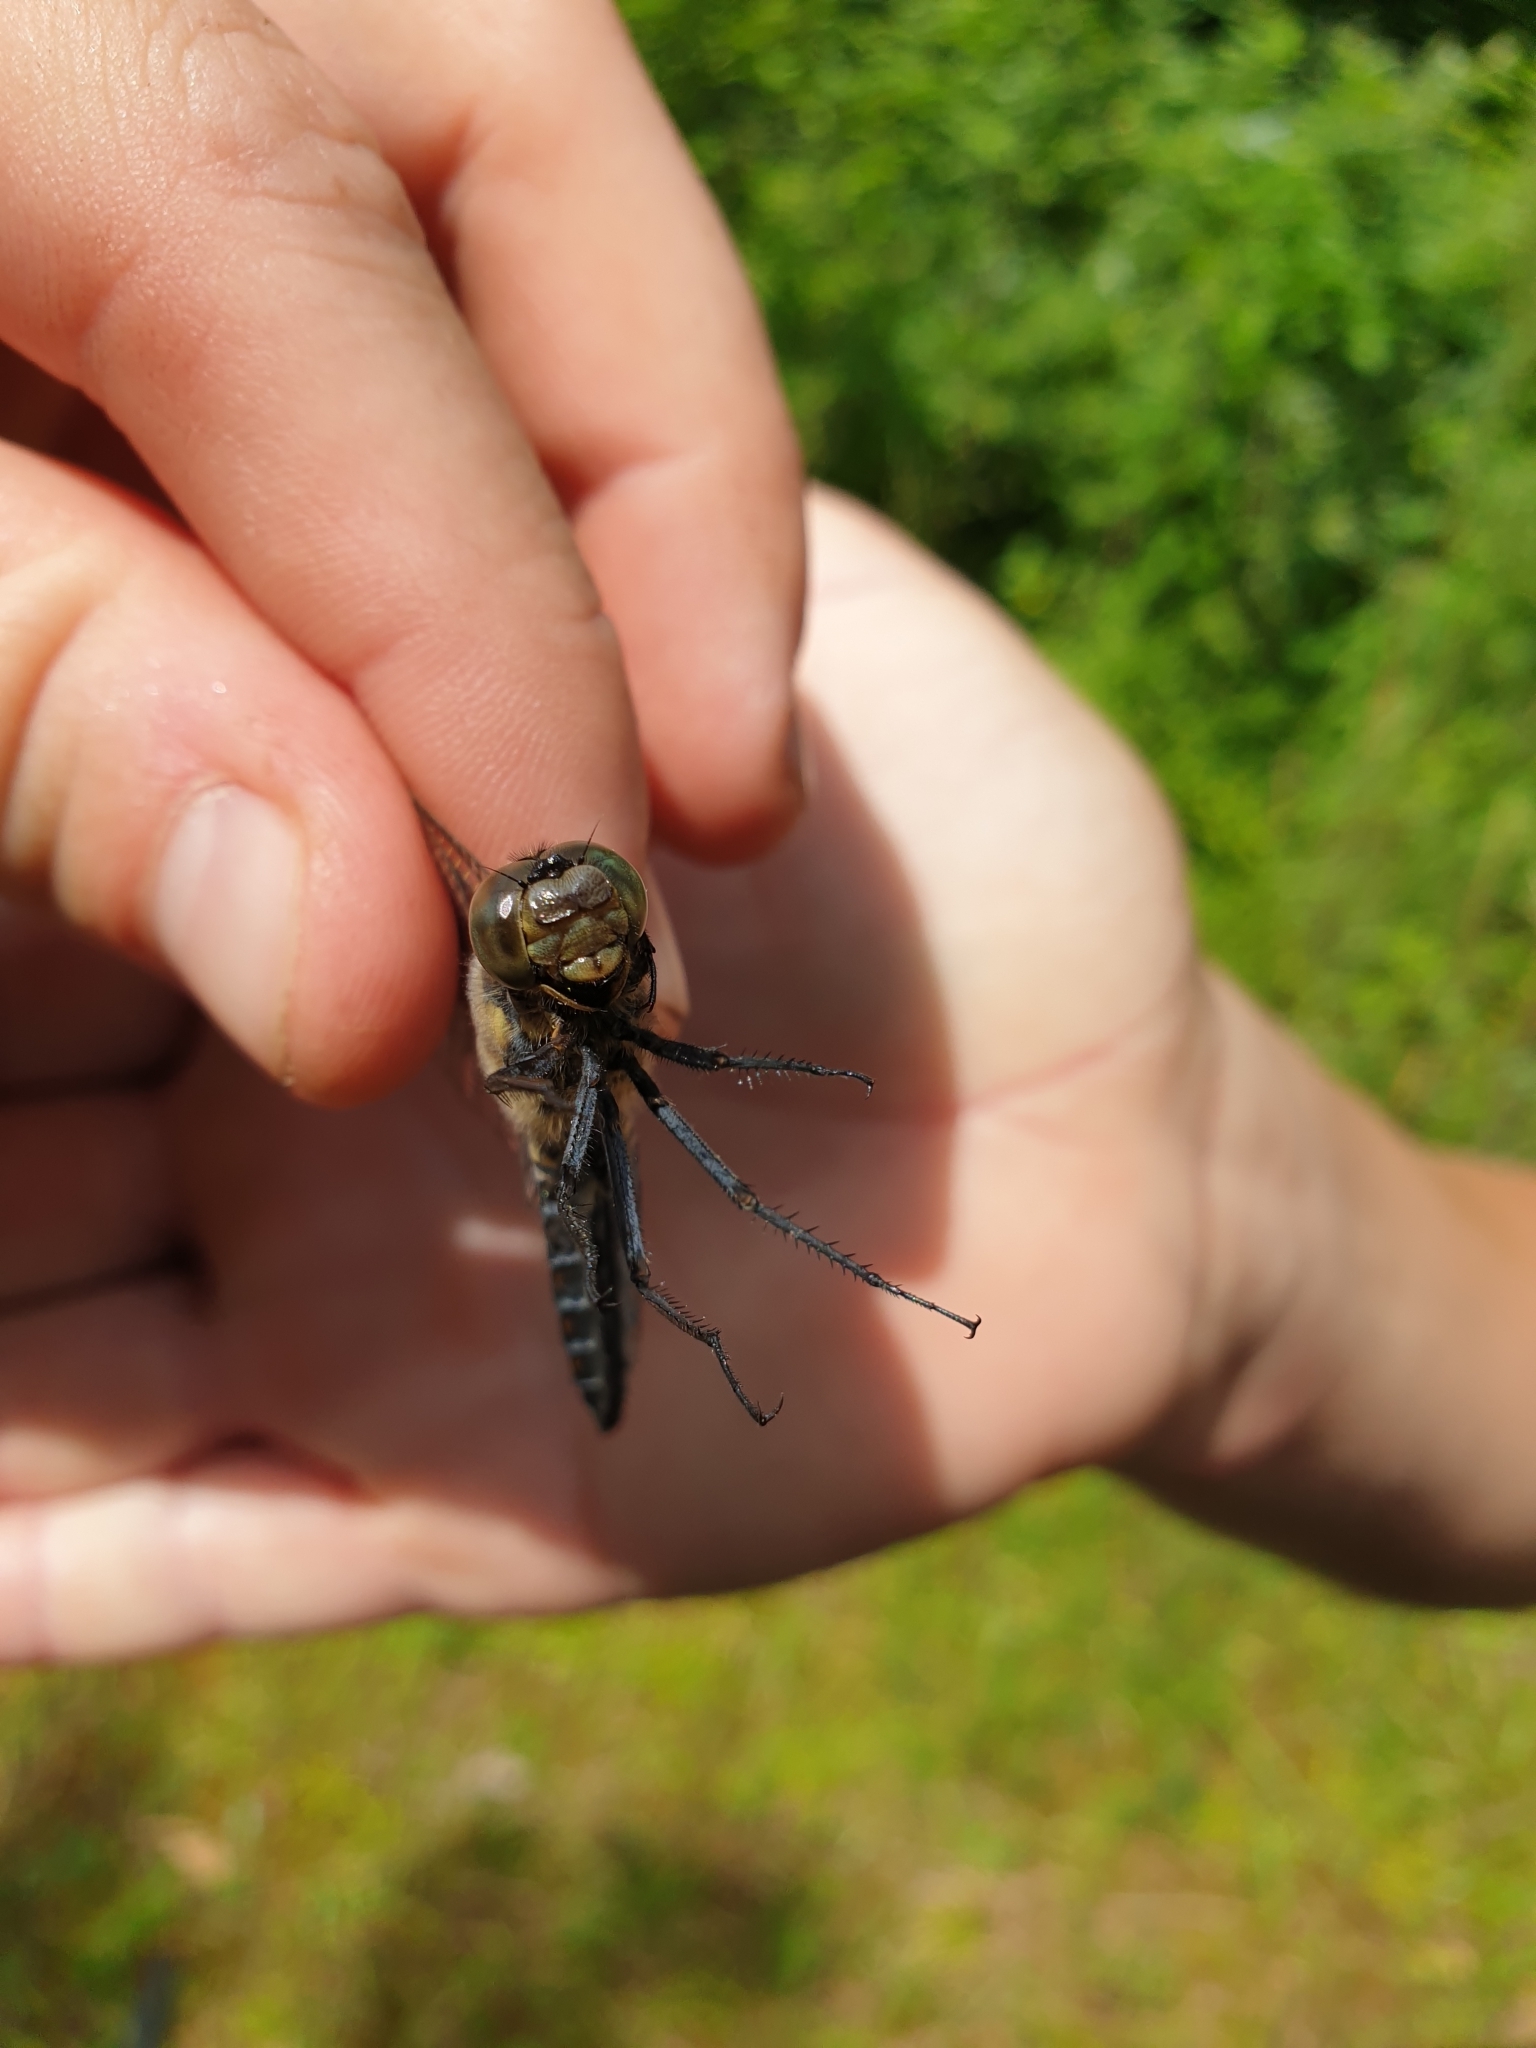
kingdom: Animalia
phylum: Arthropoda
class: Insecta
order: Odonata
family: Libellulidae
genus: Orthetrum
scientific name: Orthetrum cancellatum
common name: Black-tailed skimmer
